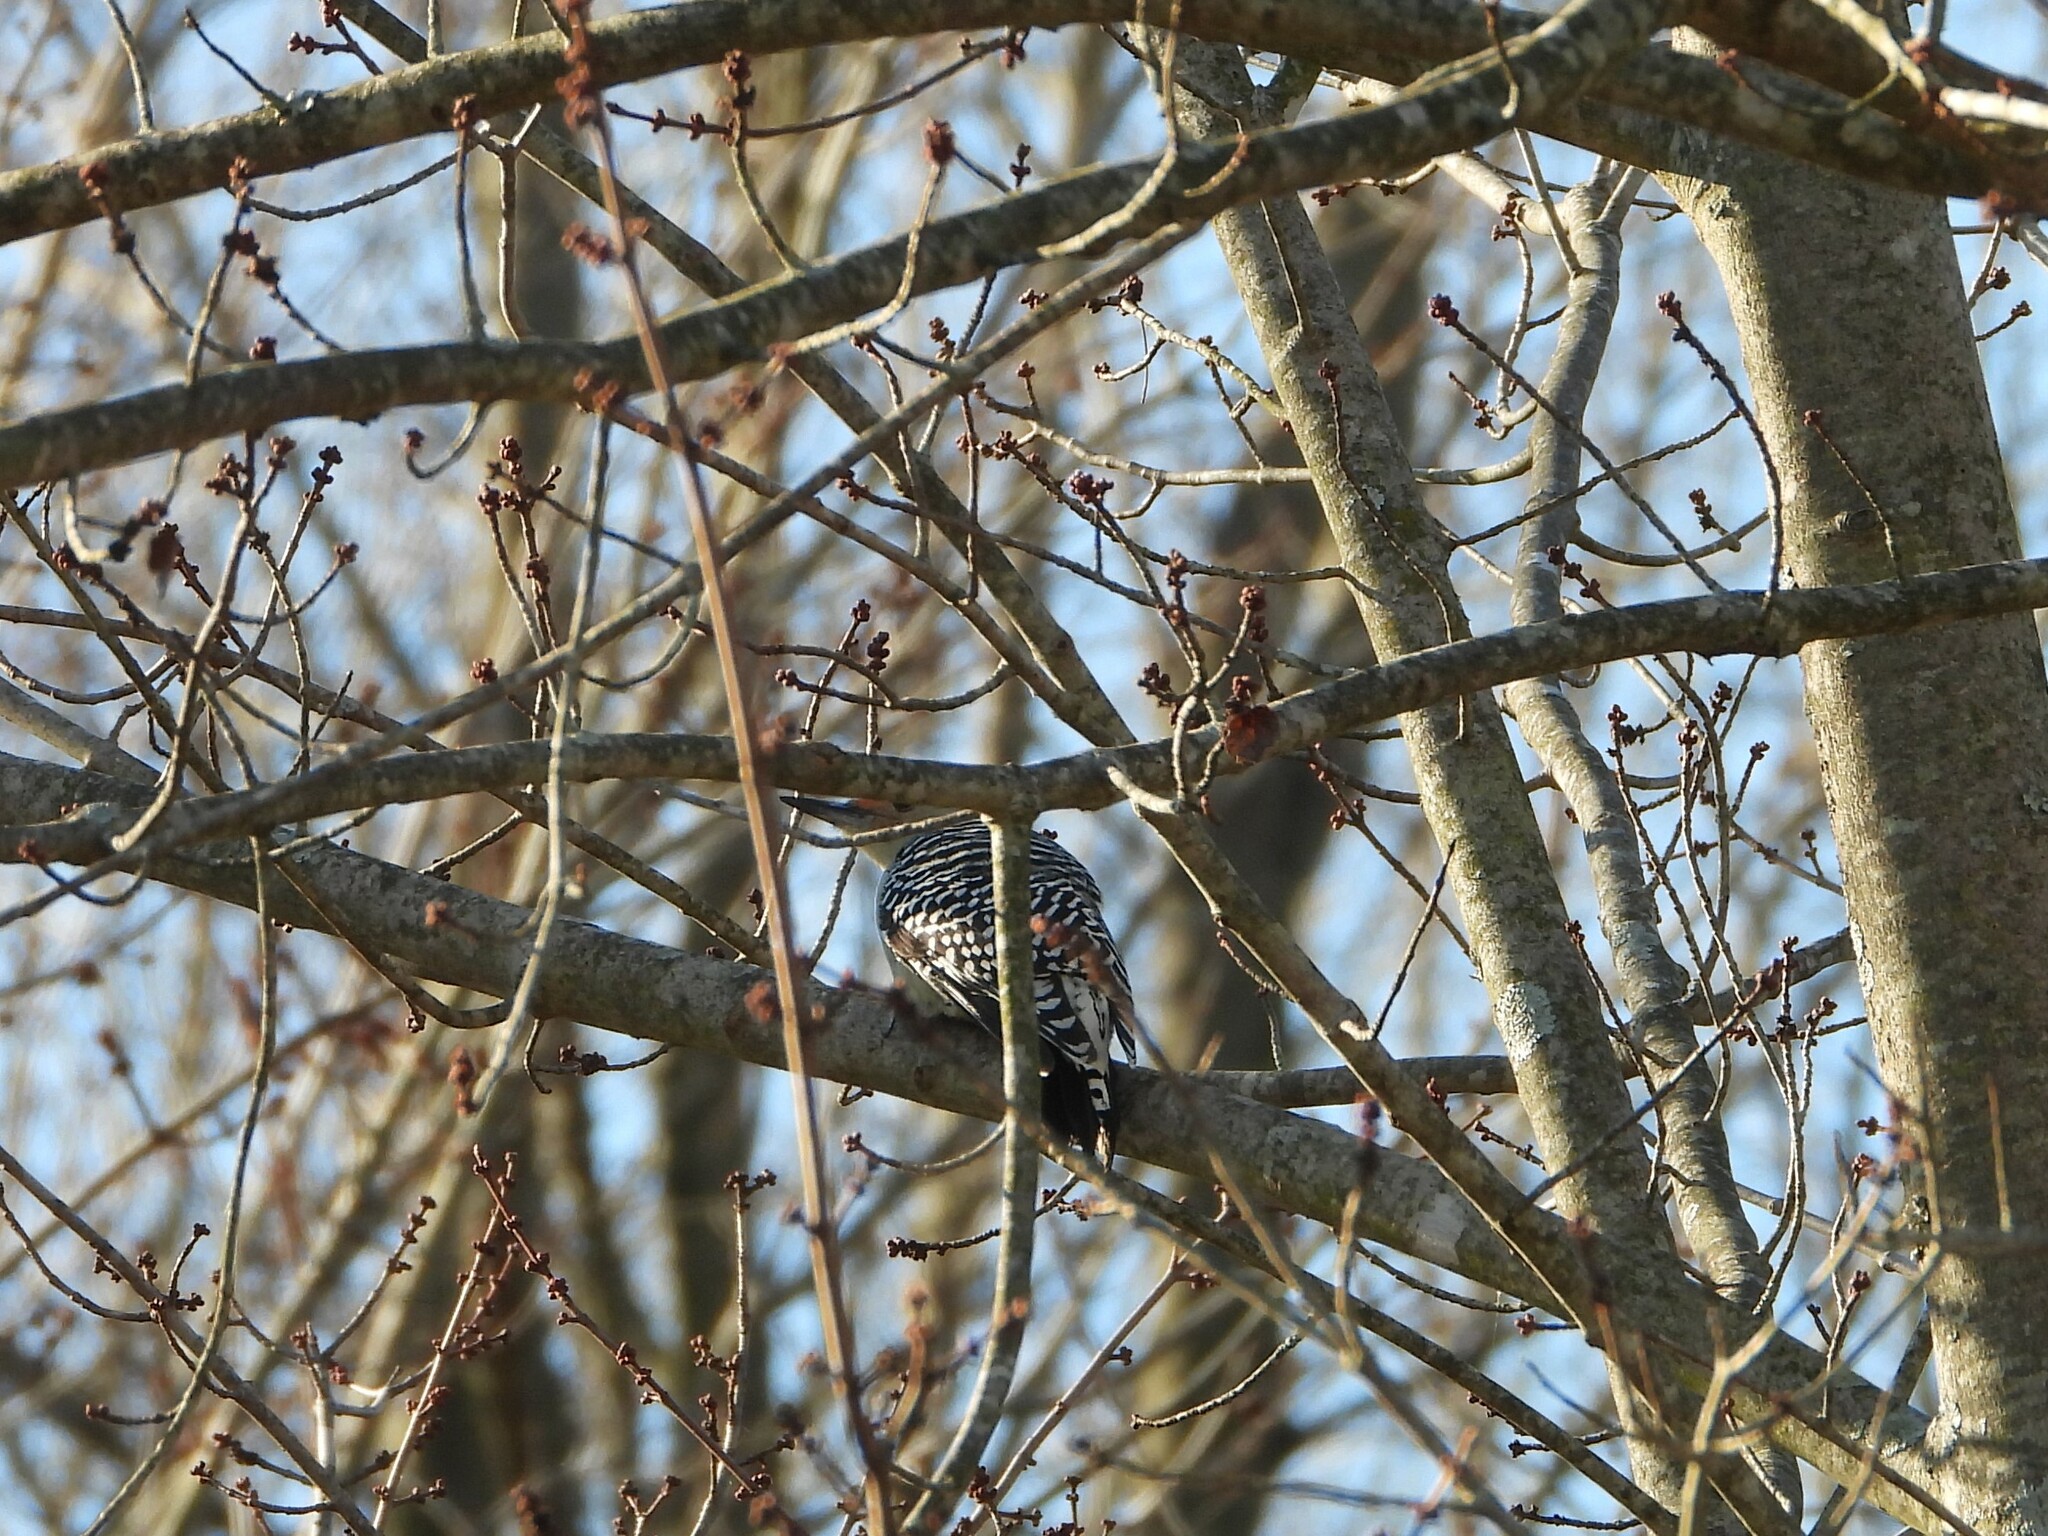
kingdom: Animalia
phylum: Chordata
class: Aves
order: Piciformes
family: Picidae
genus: Melanerpes
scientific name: Melanerpes carolinus
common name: Red-bellied woodpecker
